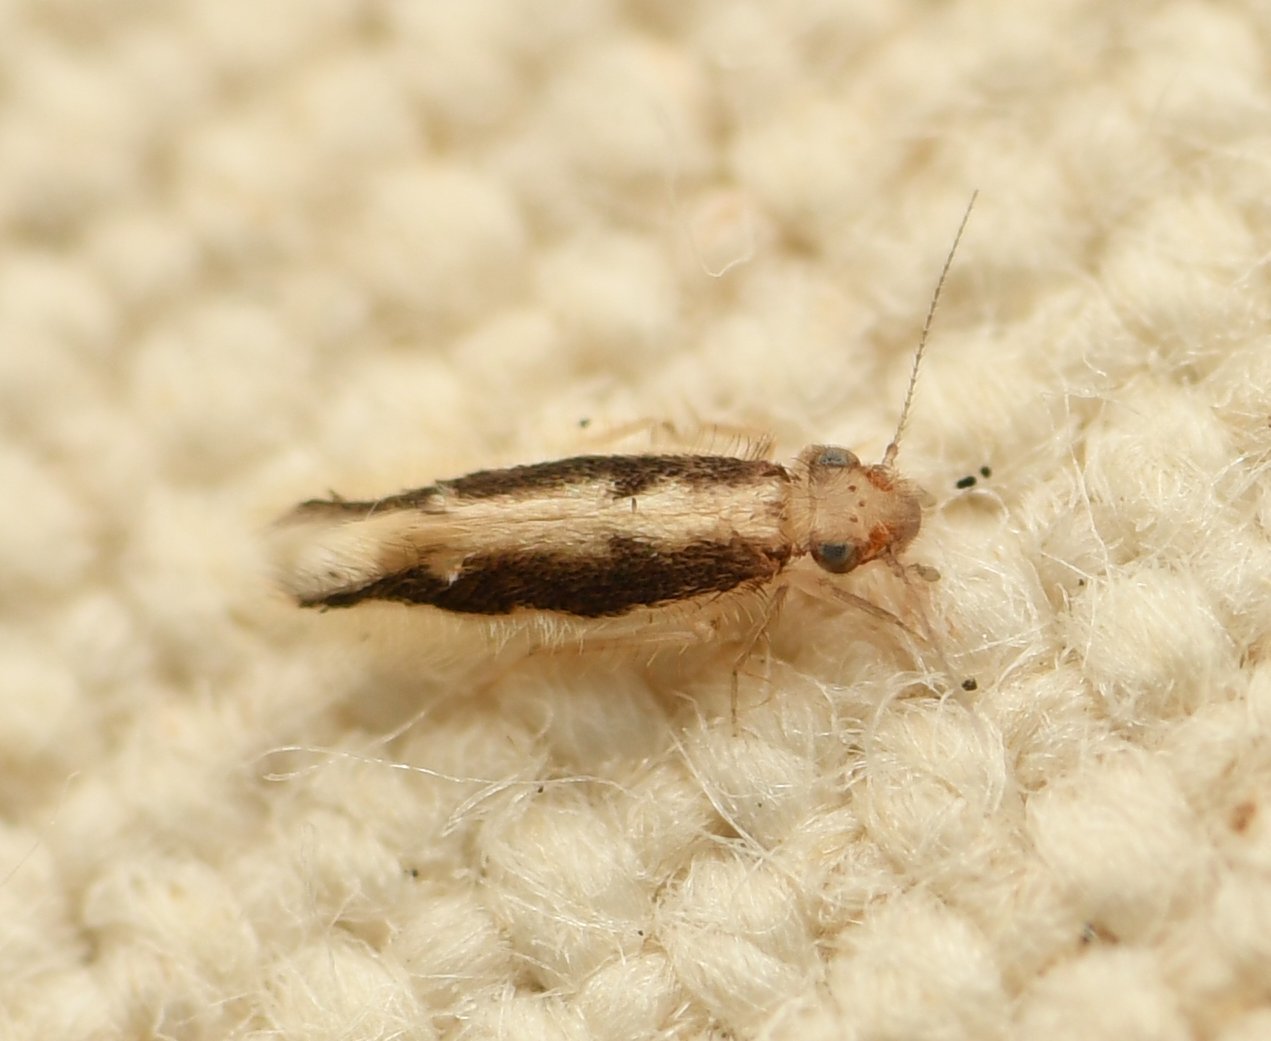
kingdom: Animalia
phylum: Arthropoda
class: Insecta
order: Psocodea
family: Lepidopsocidae
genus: Echmepteryx
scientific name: Echmepteryx madagascariensis
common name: Bark lice
